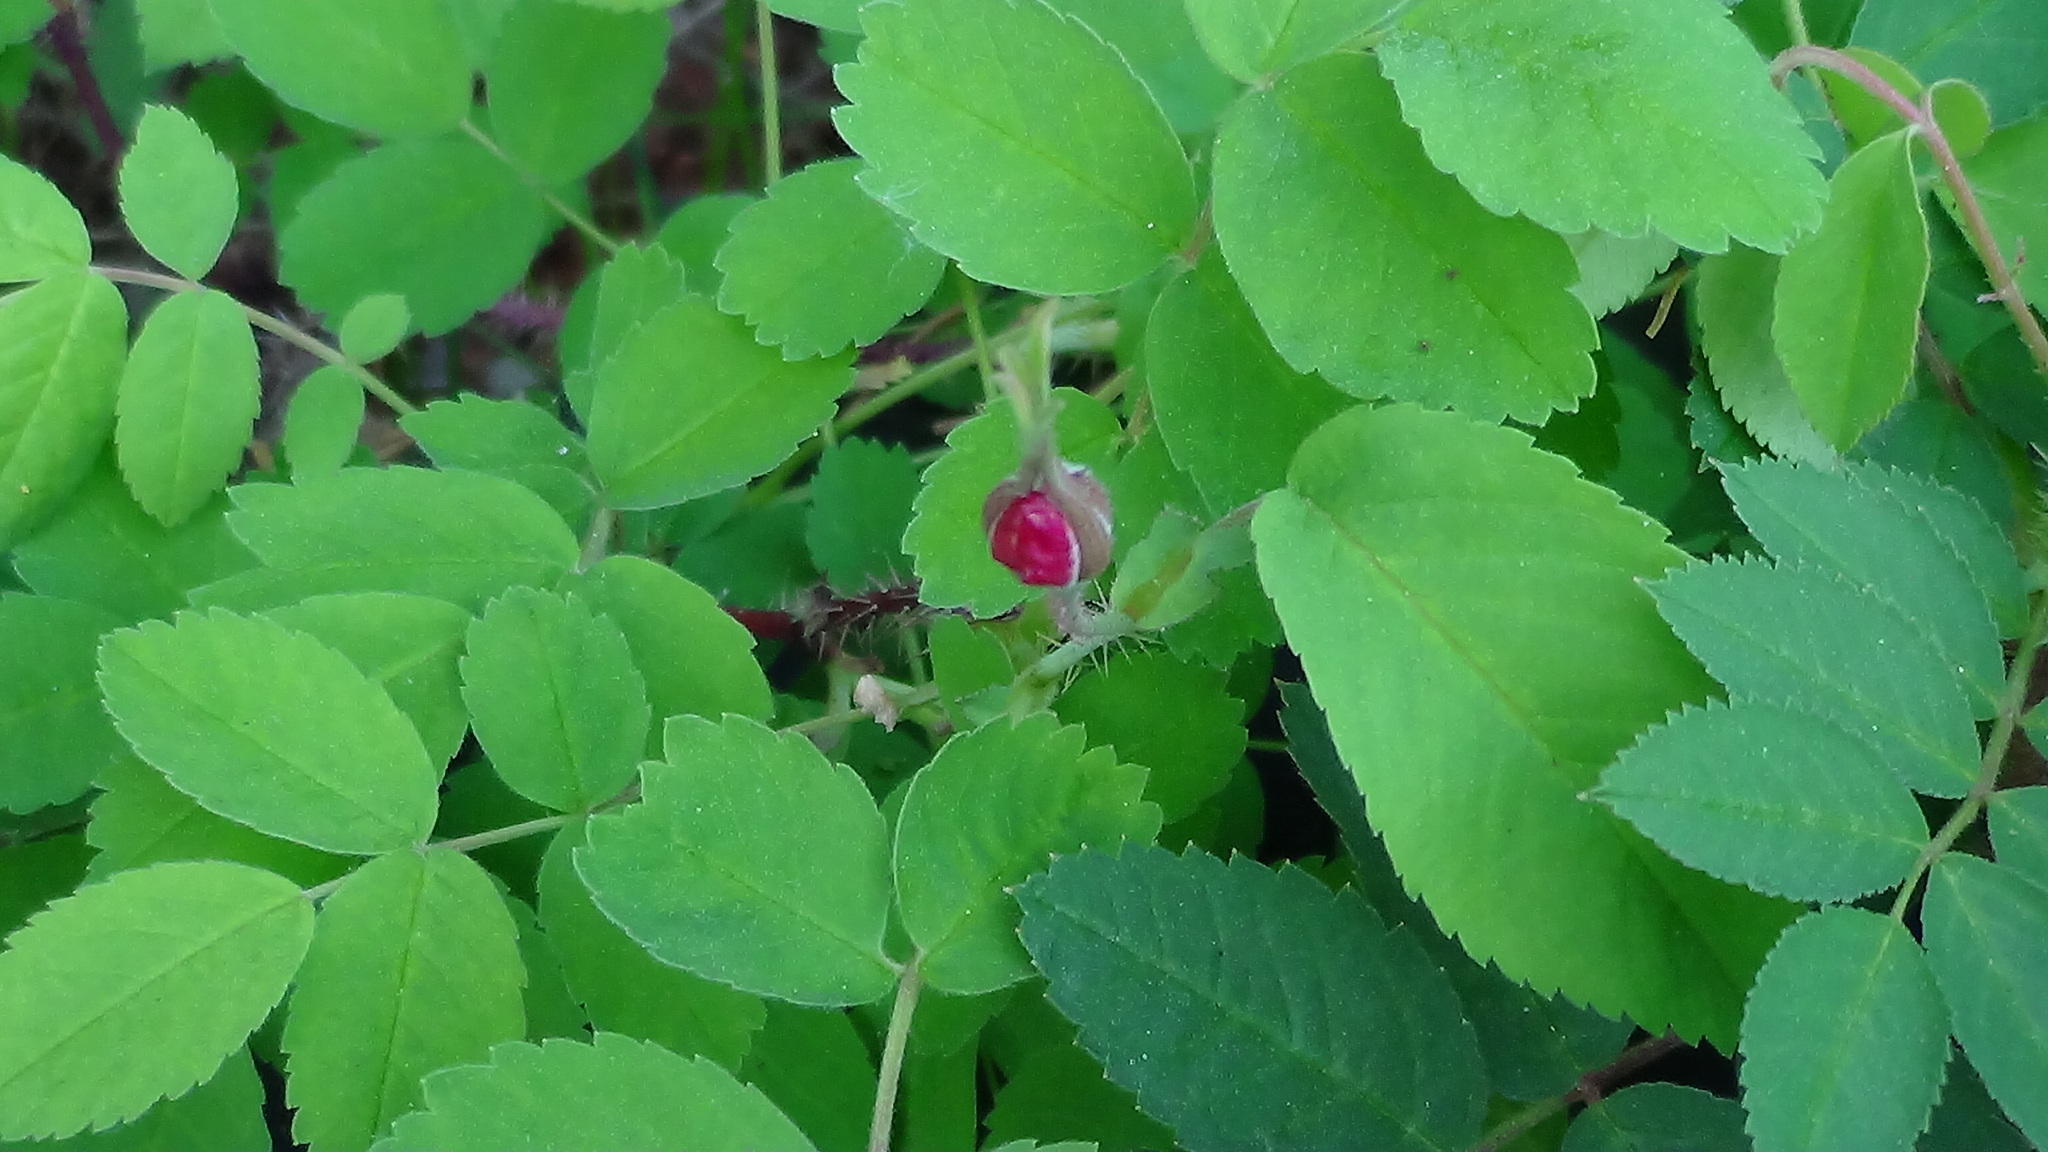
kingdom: Plantae
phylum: Tracheophyta
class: Magnoliopsida
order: Rosales
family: Rosaceae
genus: Rosa
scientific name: Rosa acicularis
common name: Prickly rose
